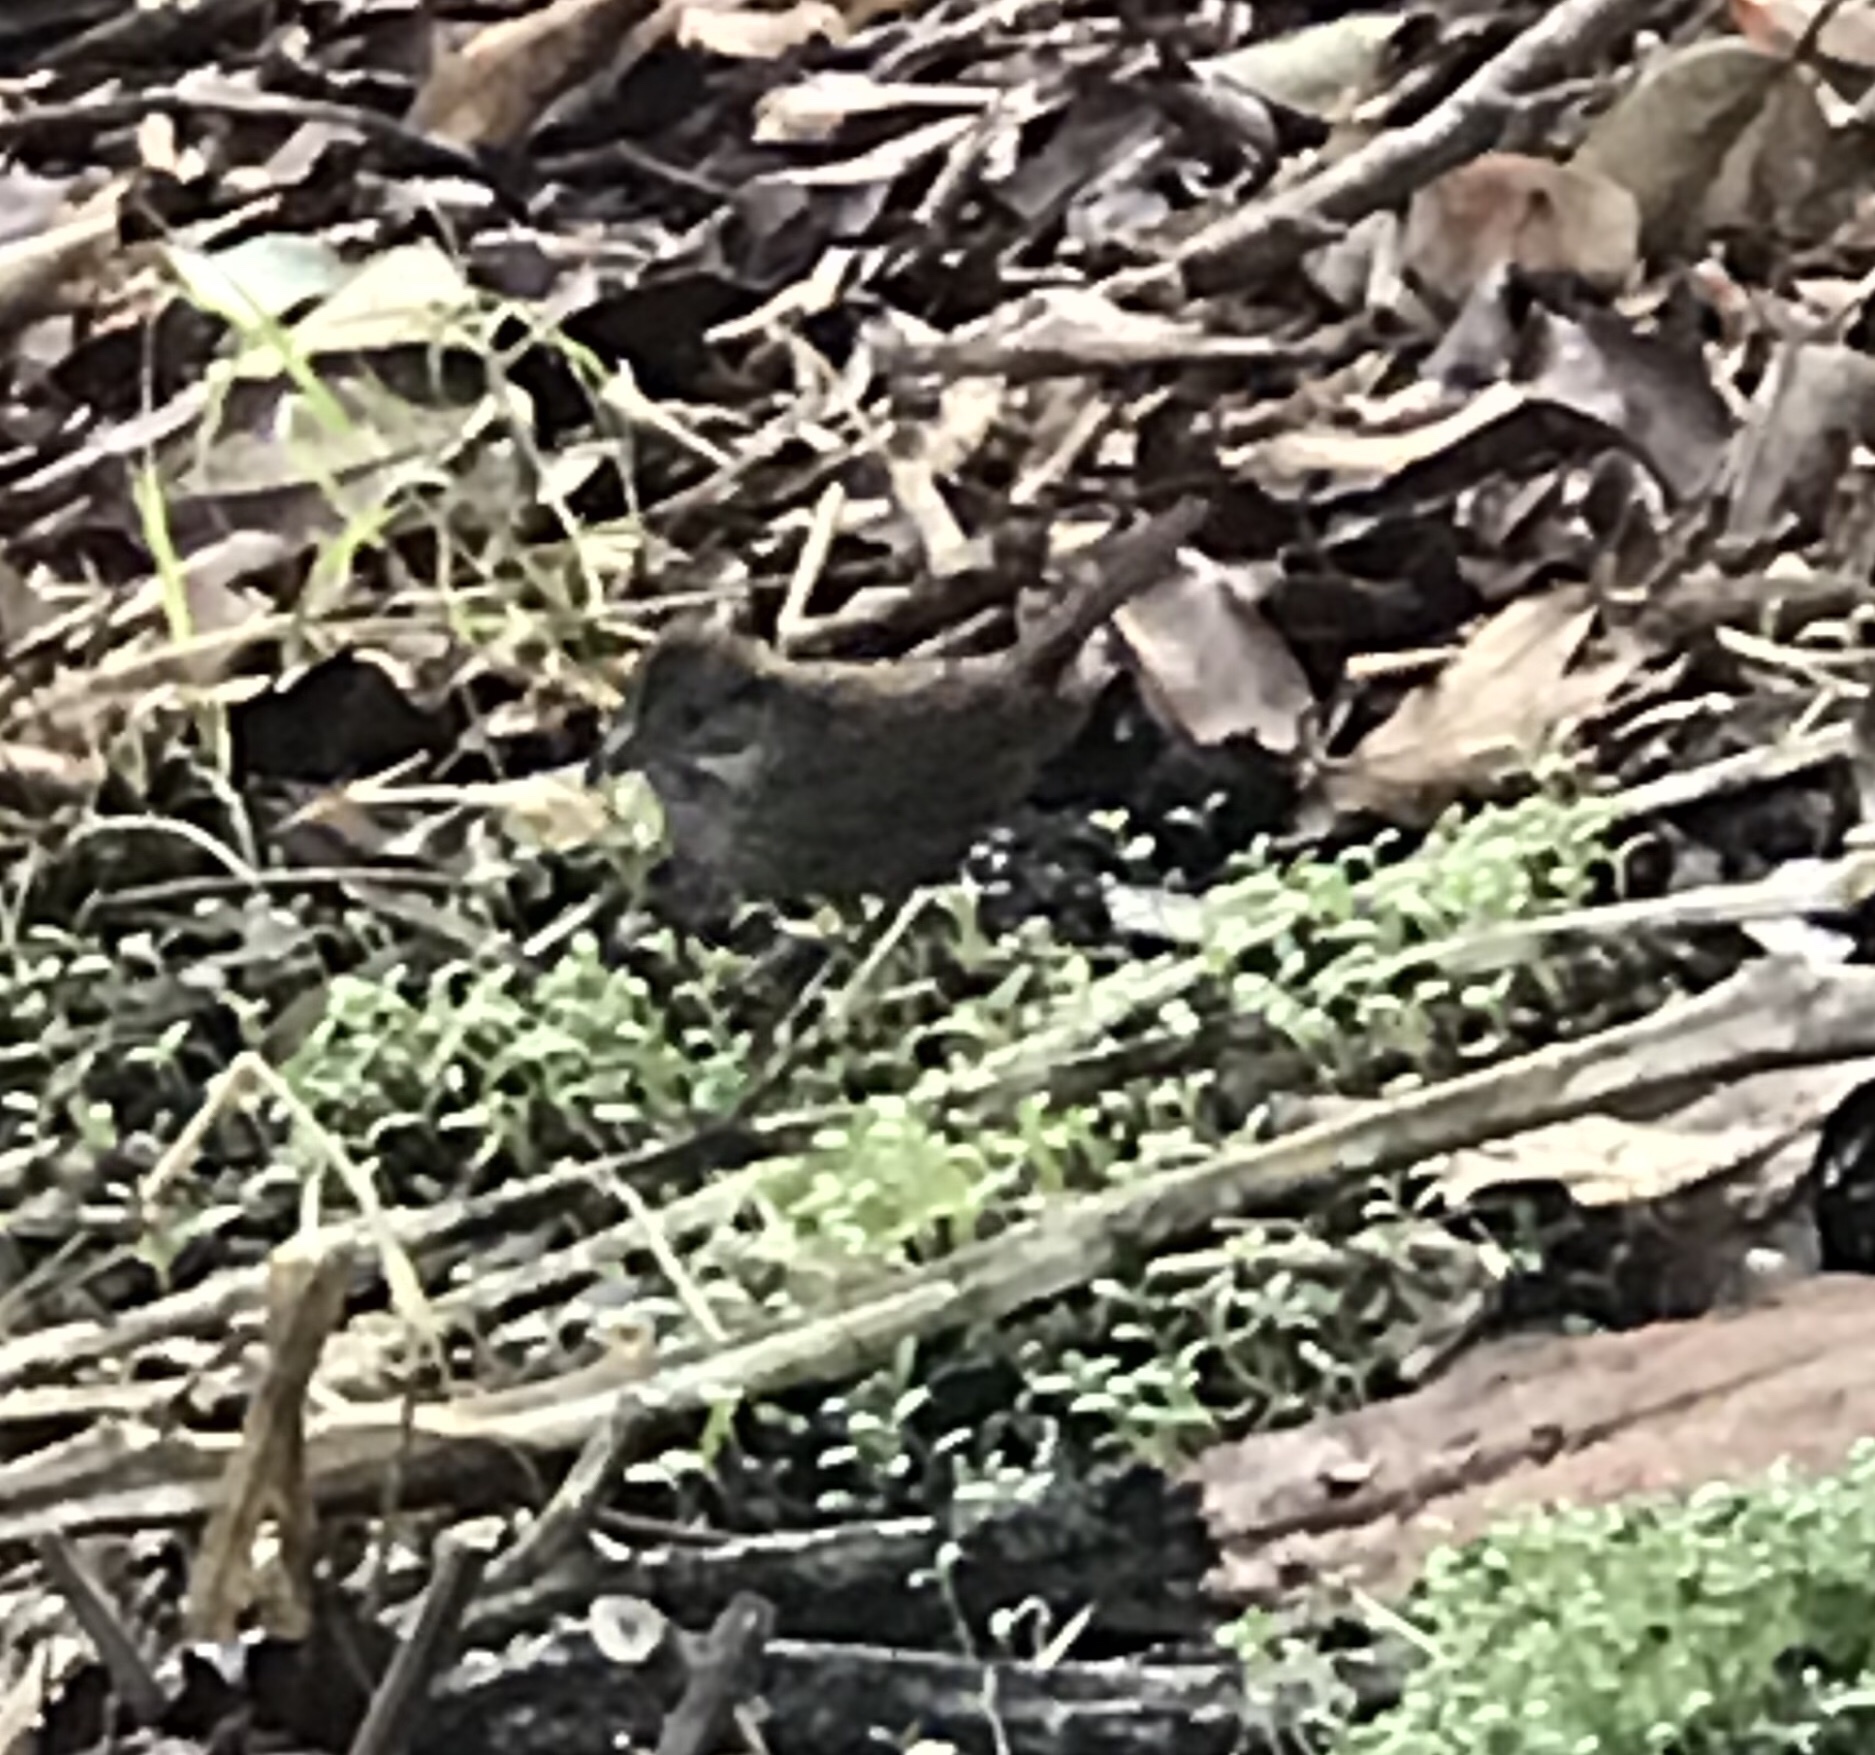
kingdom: Animalia
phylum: Chordata
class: Aves
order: Passeriformes
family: Passerellidae
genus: Melospiza
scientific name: Melospiza lincolnii
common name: Lincoln's sparrow
